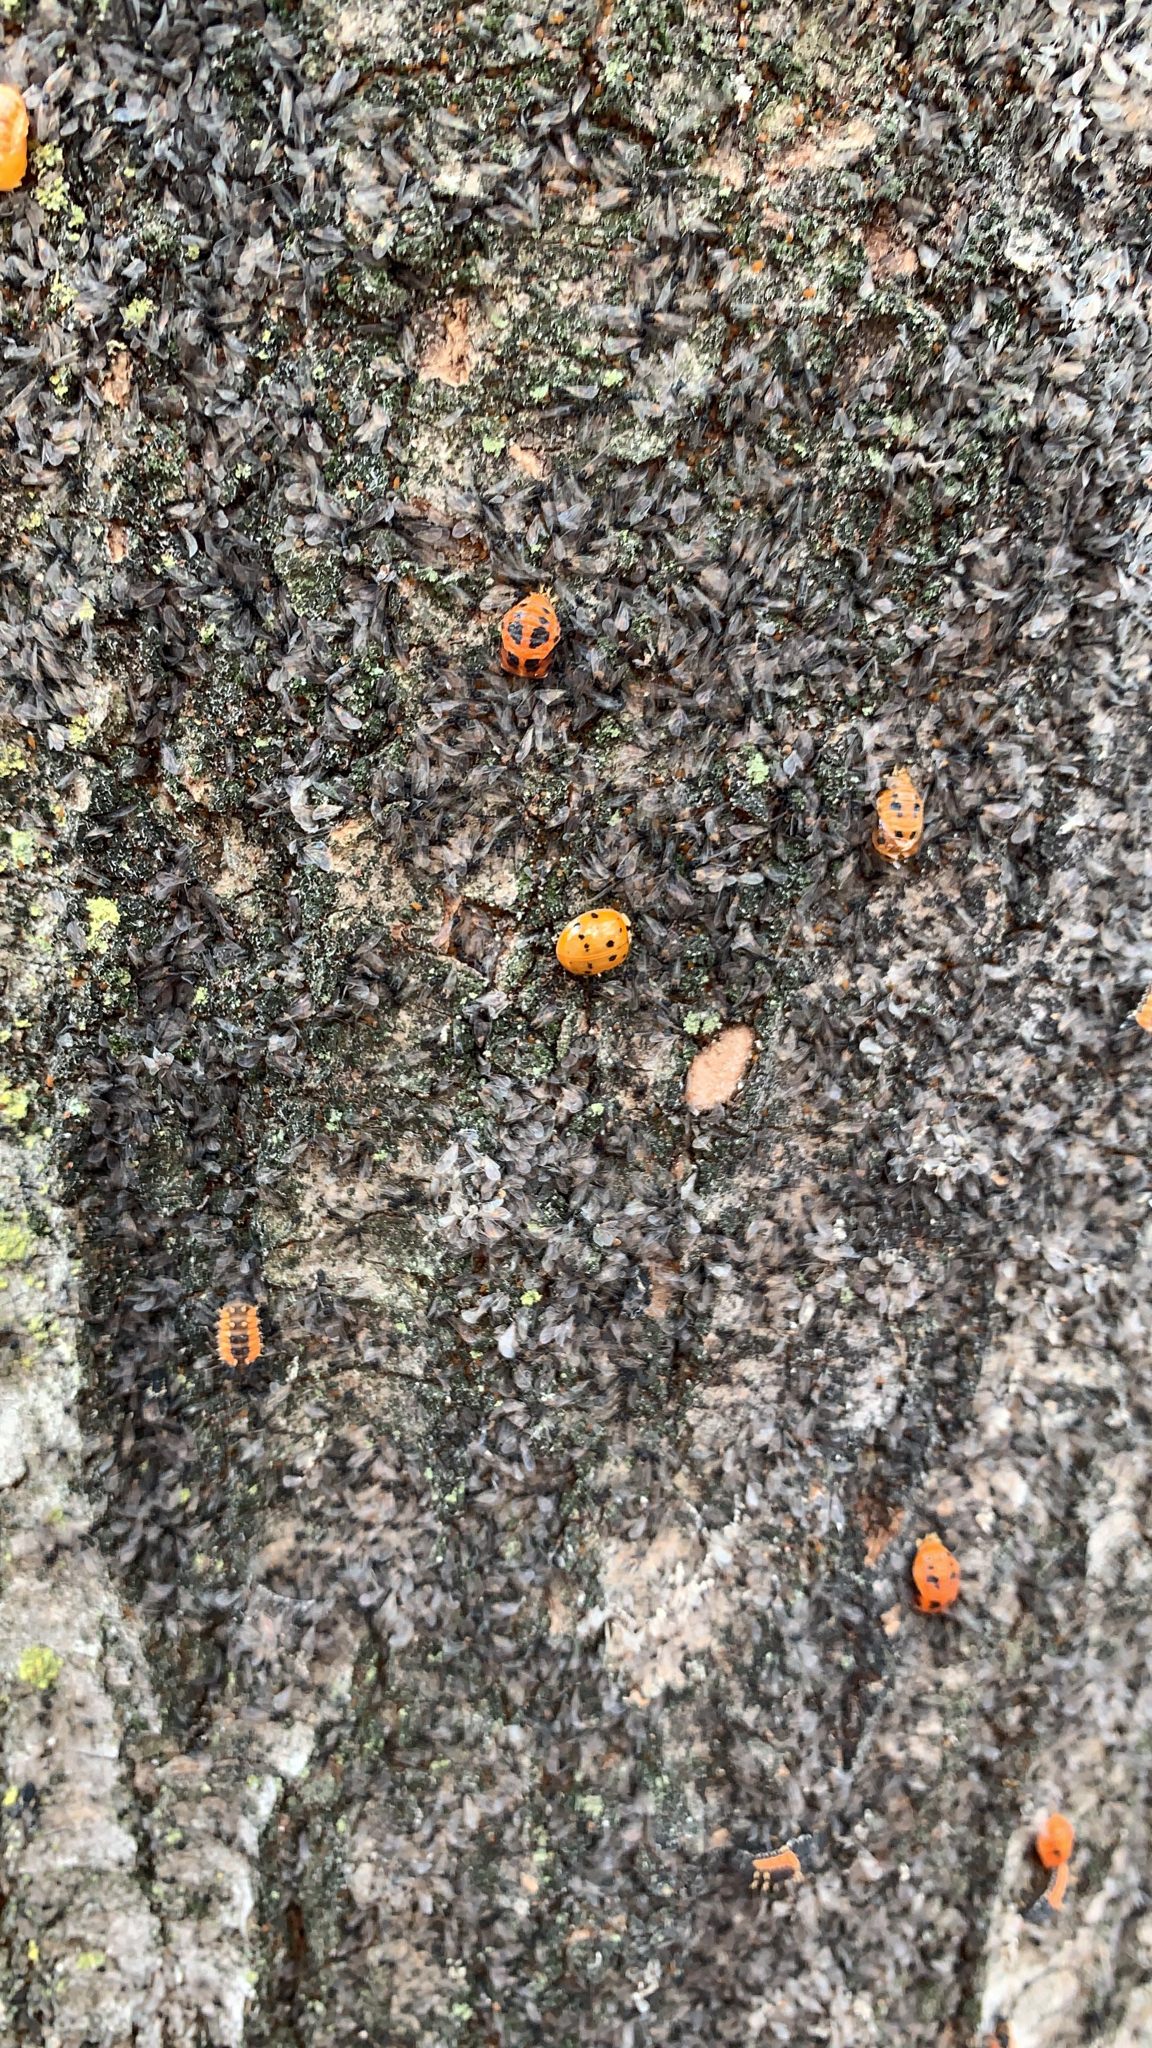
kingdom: Animalia
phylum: Arthropoda
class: Insecta
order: Coleoptera
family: Coccinellidae
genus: Harmonia
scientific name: Harmonia axyridis
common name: Harlequin ladybird
